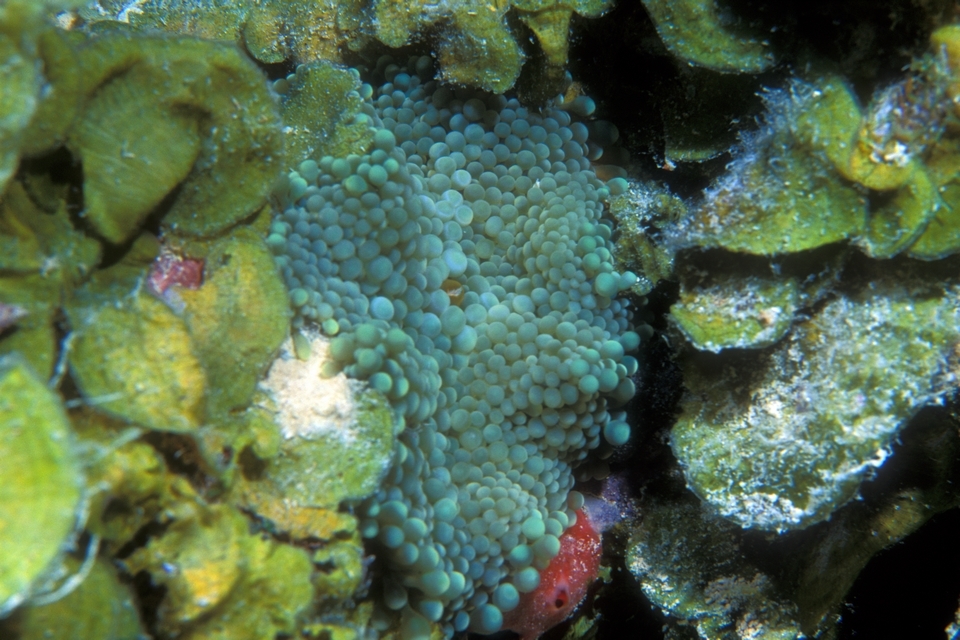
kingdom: Animalia
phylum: Cnidaria
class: Anthozoa
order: Corallimorpharia
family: Ricordeidae
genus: Ricordea
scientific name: Ricordea florida
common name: False coral
